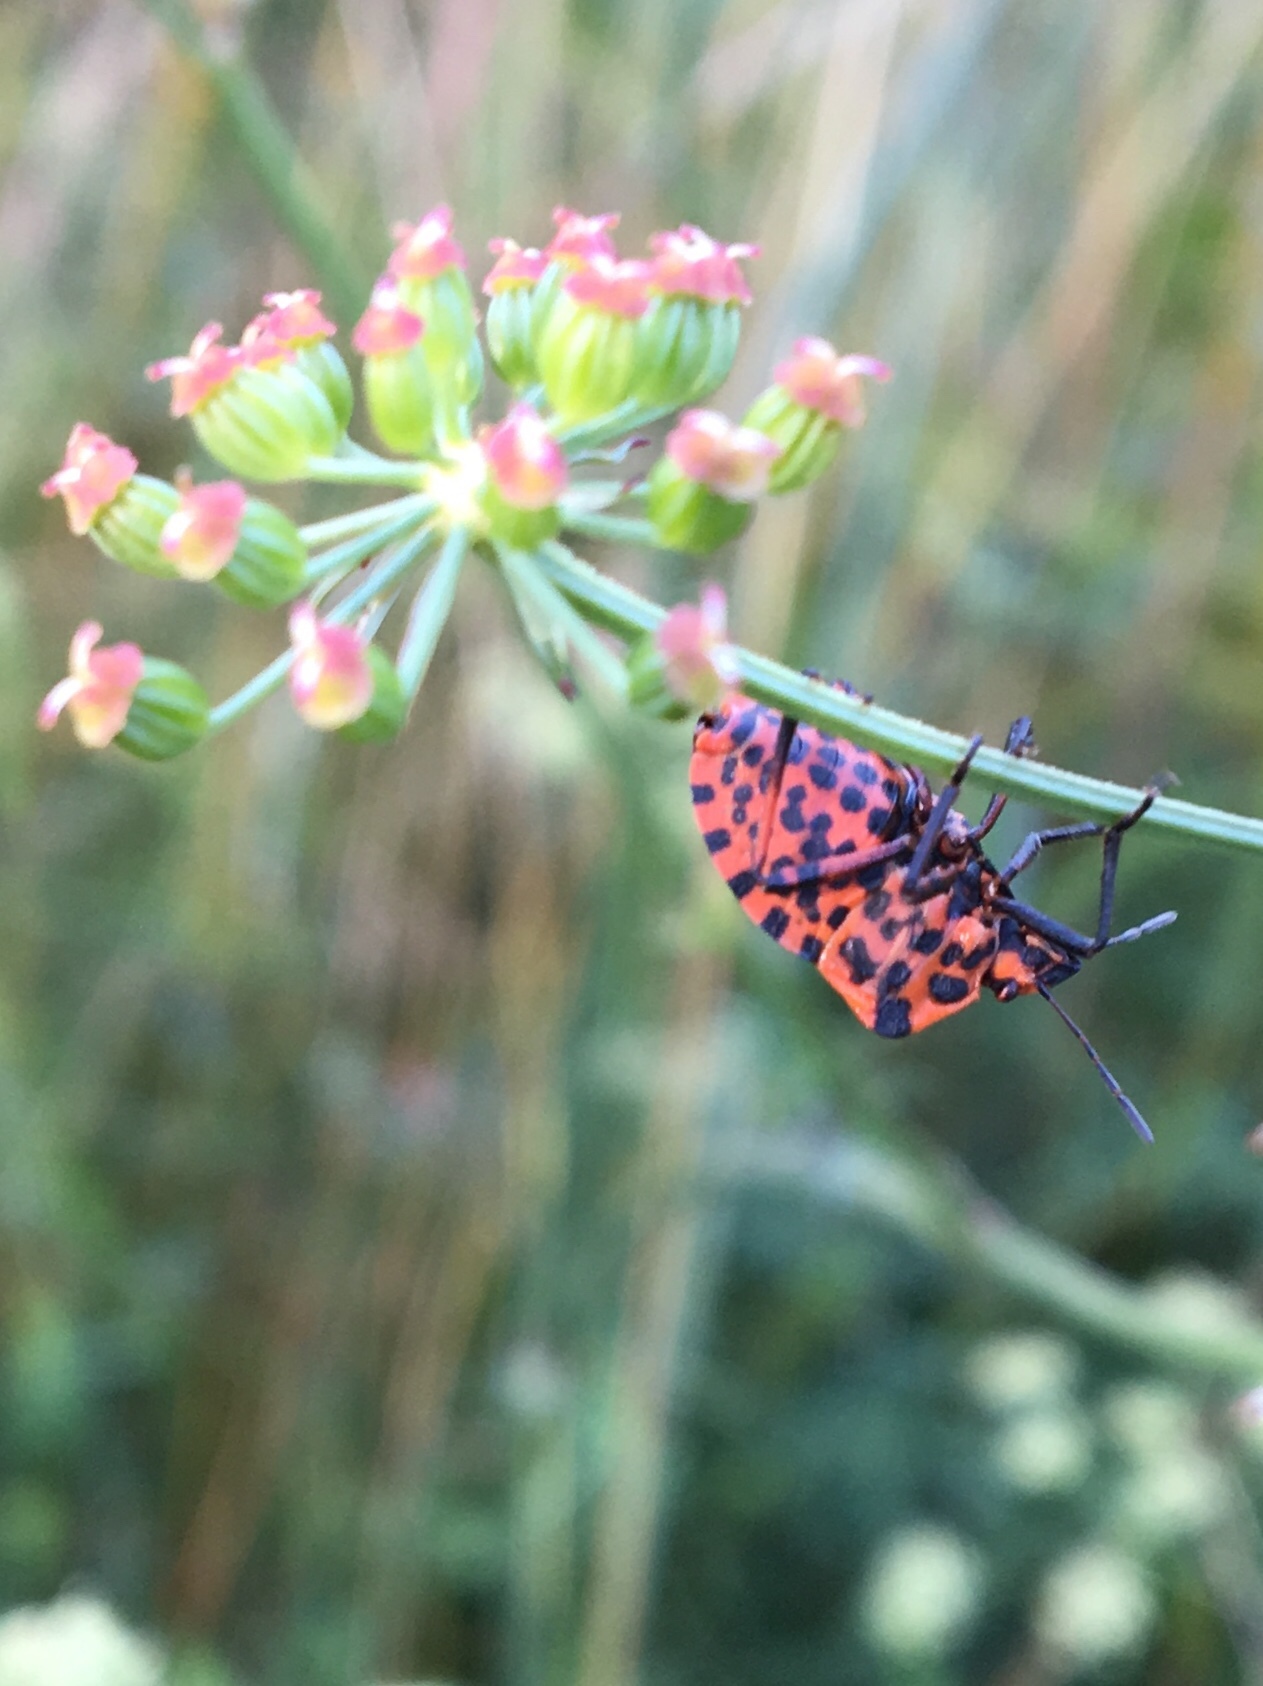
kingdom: Animalia
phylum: Arthropoda
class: Insecta
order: Hemiptera
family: Pentatomidae
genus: Graphosoma
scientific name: Graphosoma italicum
